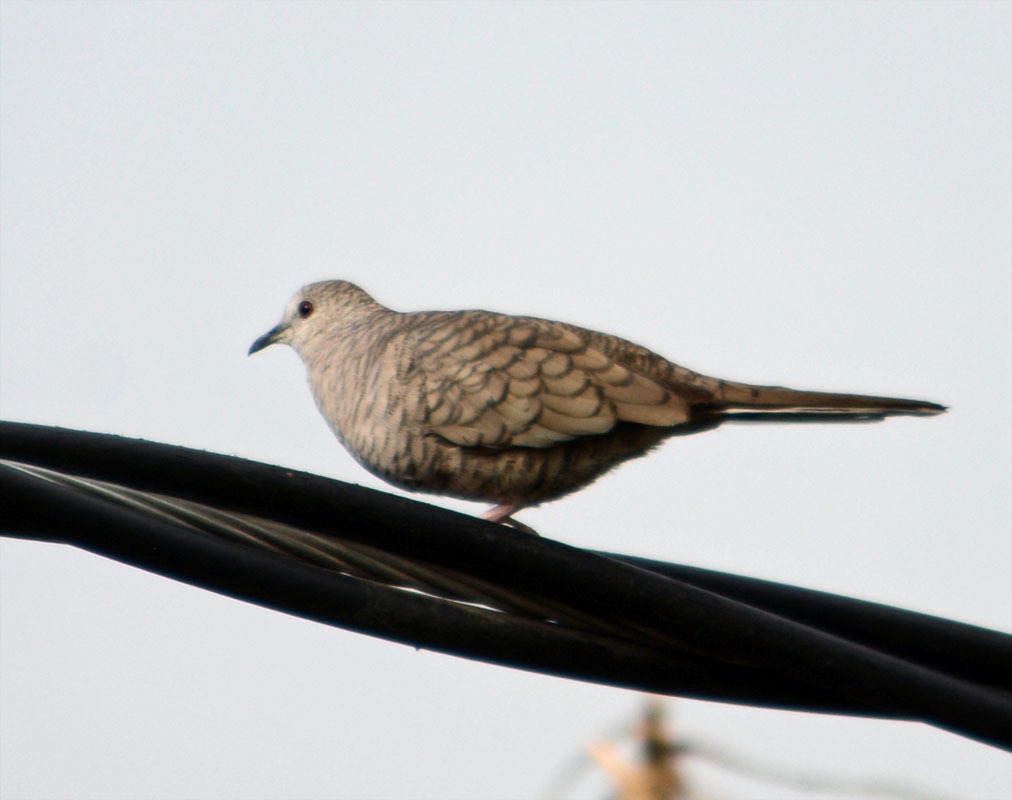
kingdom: Animalia
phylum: Chordata
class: Aves
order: Columbiformes
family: Columbidae
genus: Columbina
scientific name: Columbina inca
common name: Inca dove
